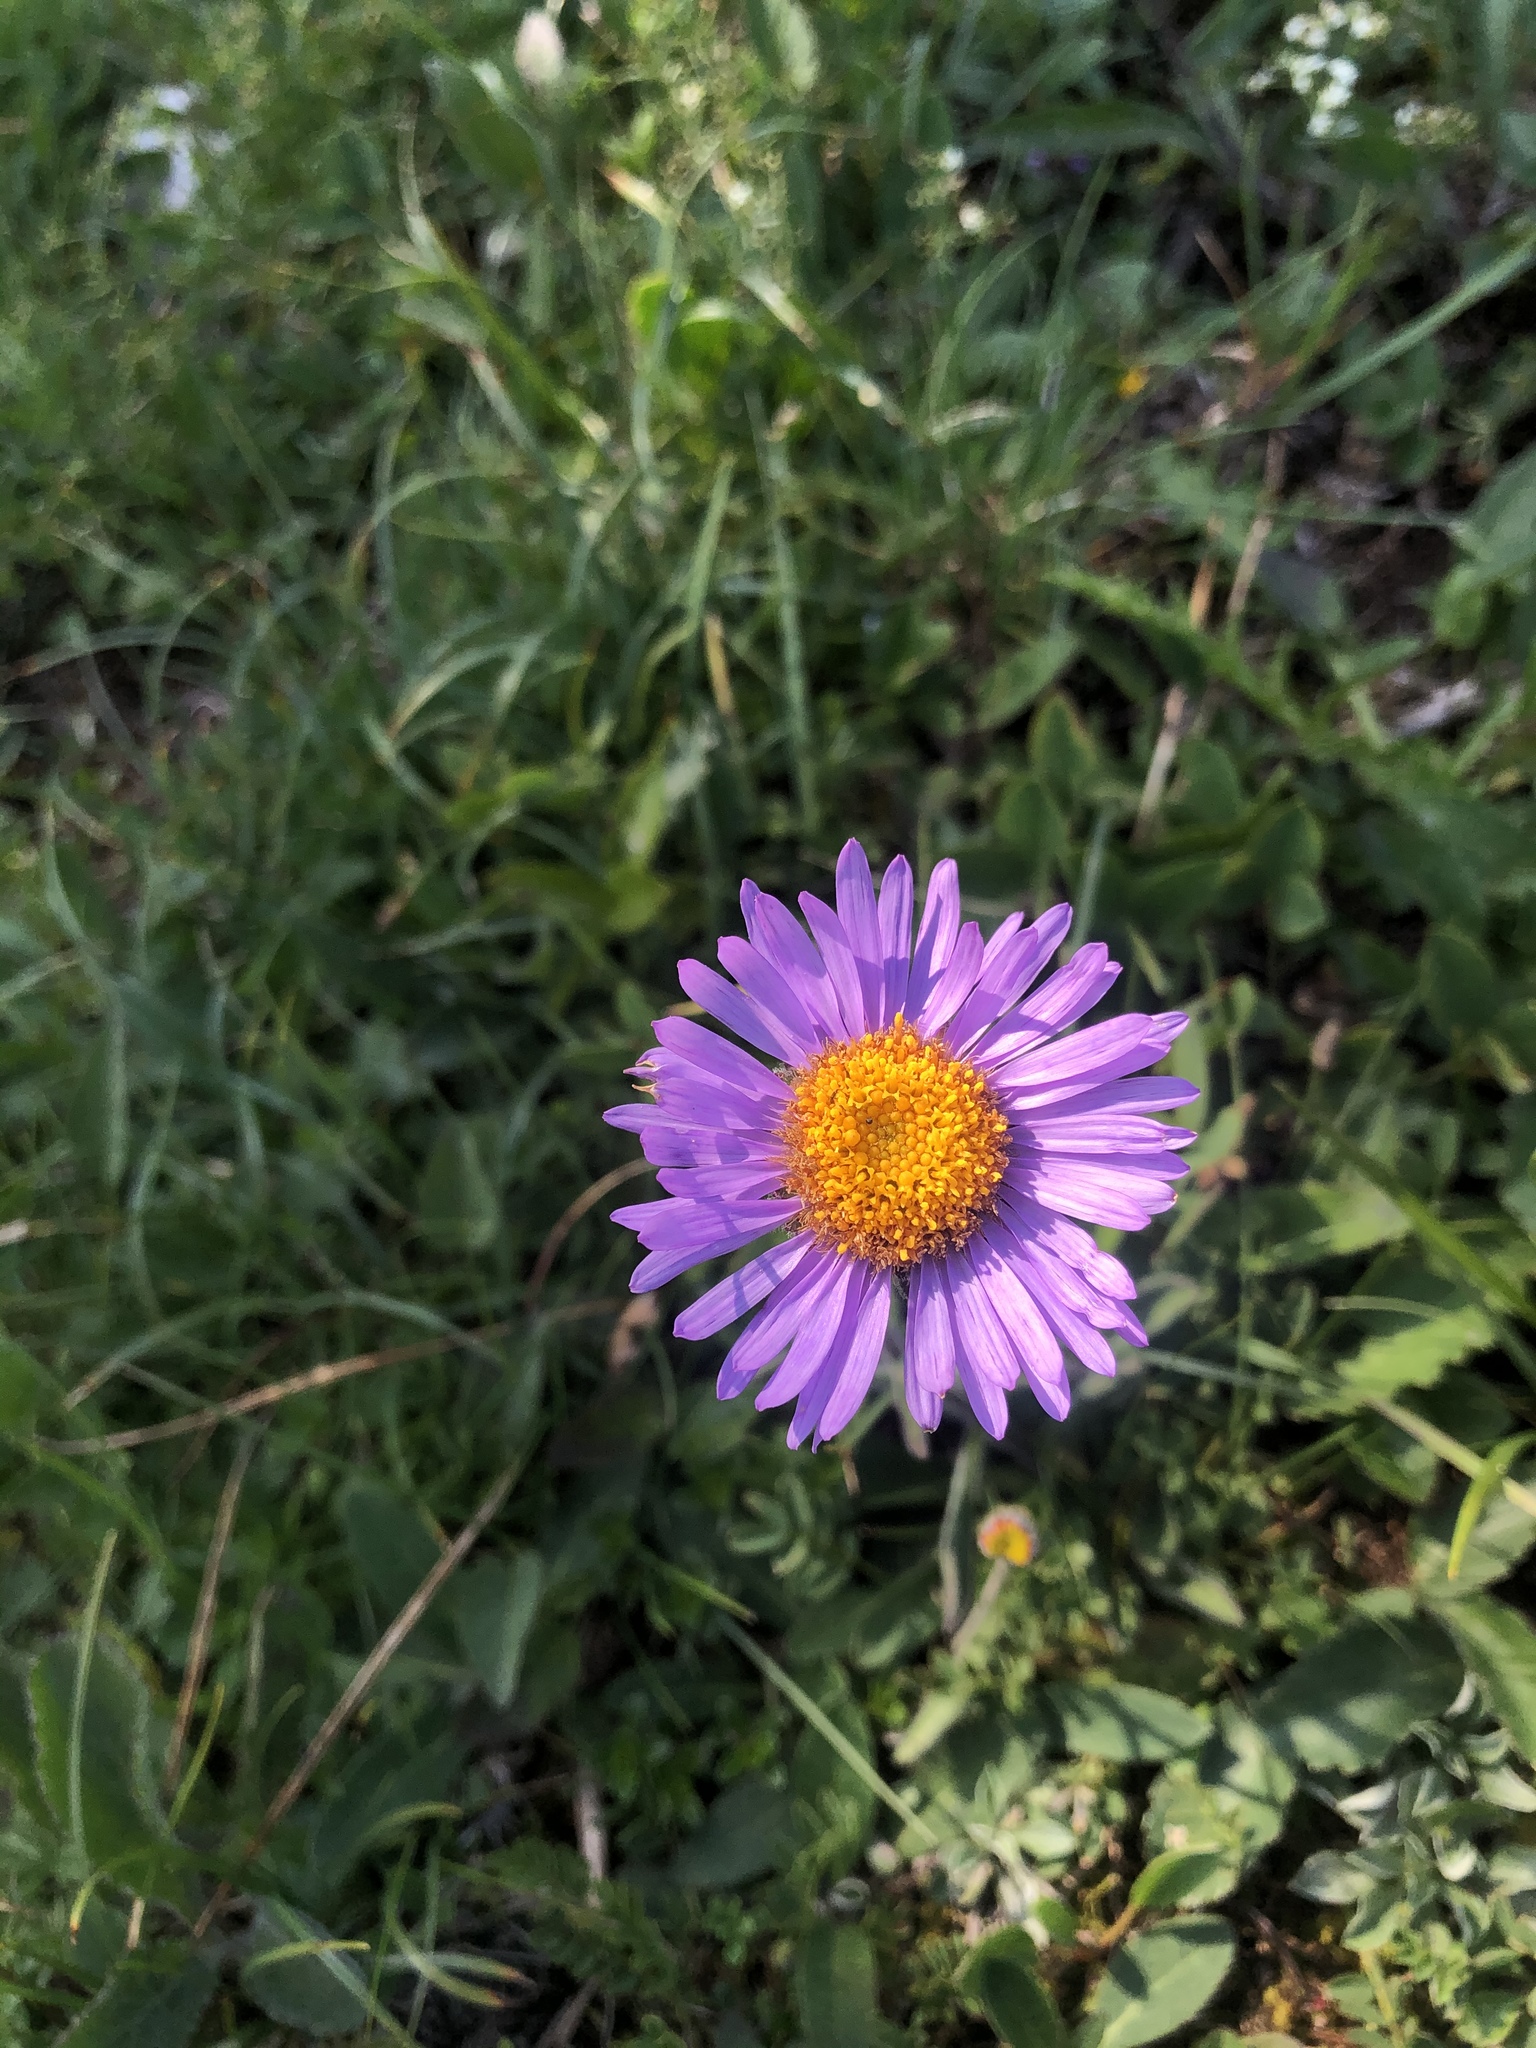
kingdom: Plantae
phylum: Tracheophyta
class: Magnoliopsida
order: Asterales
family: Asteraceae
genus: Aster
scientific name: Aster alpinus
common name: Alpine aster
